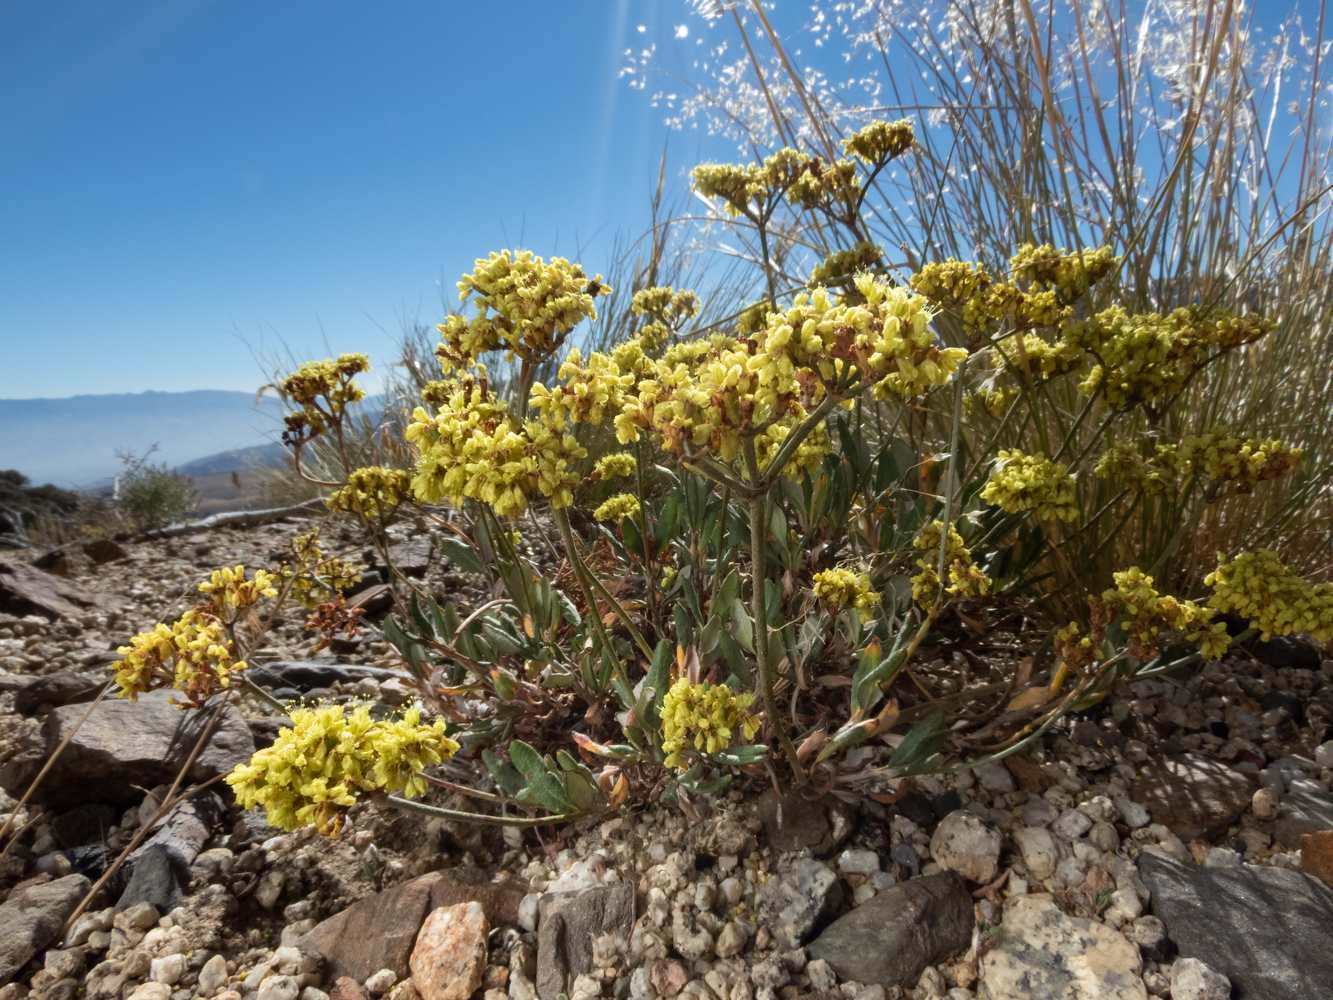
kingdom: Plantae
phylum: Tracheophyta
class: Magnoliopsida
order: Caryophyllales
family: Polygonaceae
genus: Eriogonum
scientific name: Eriogonum microtheca
